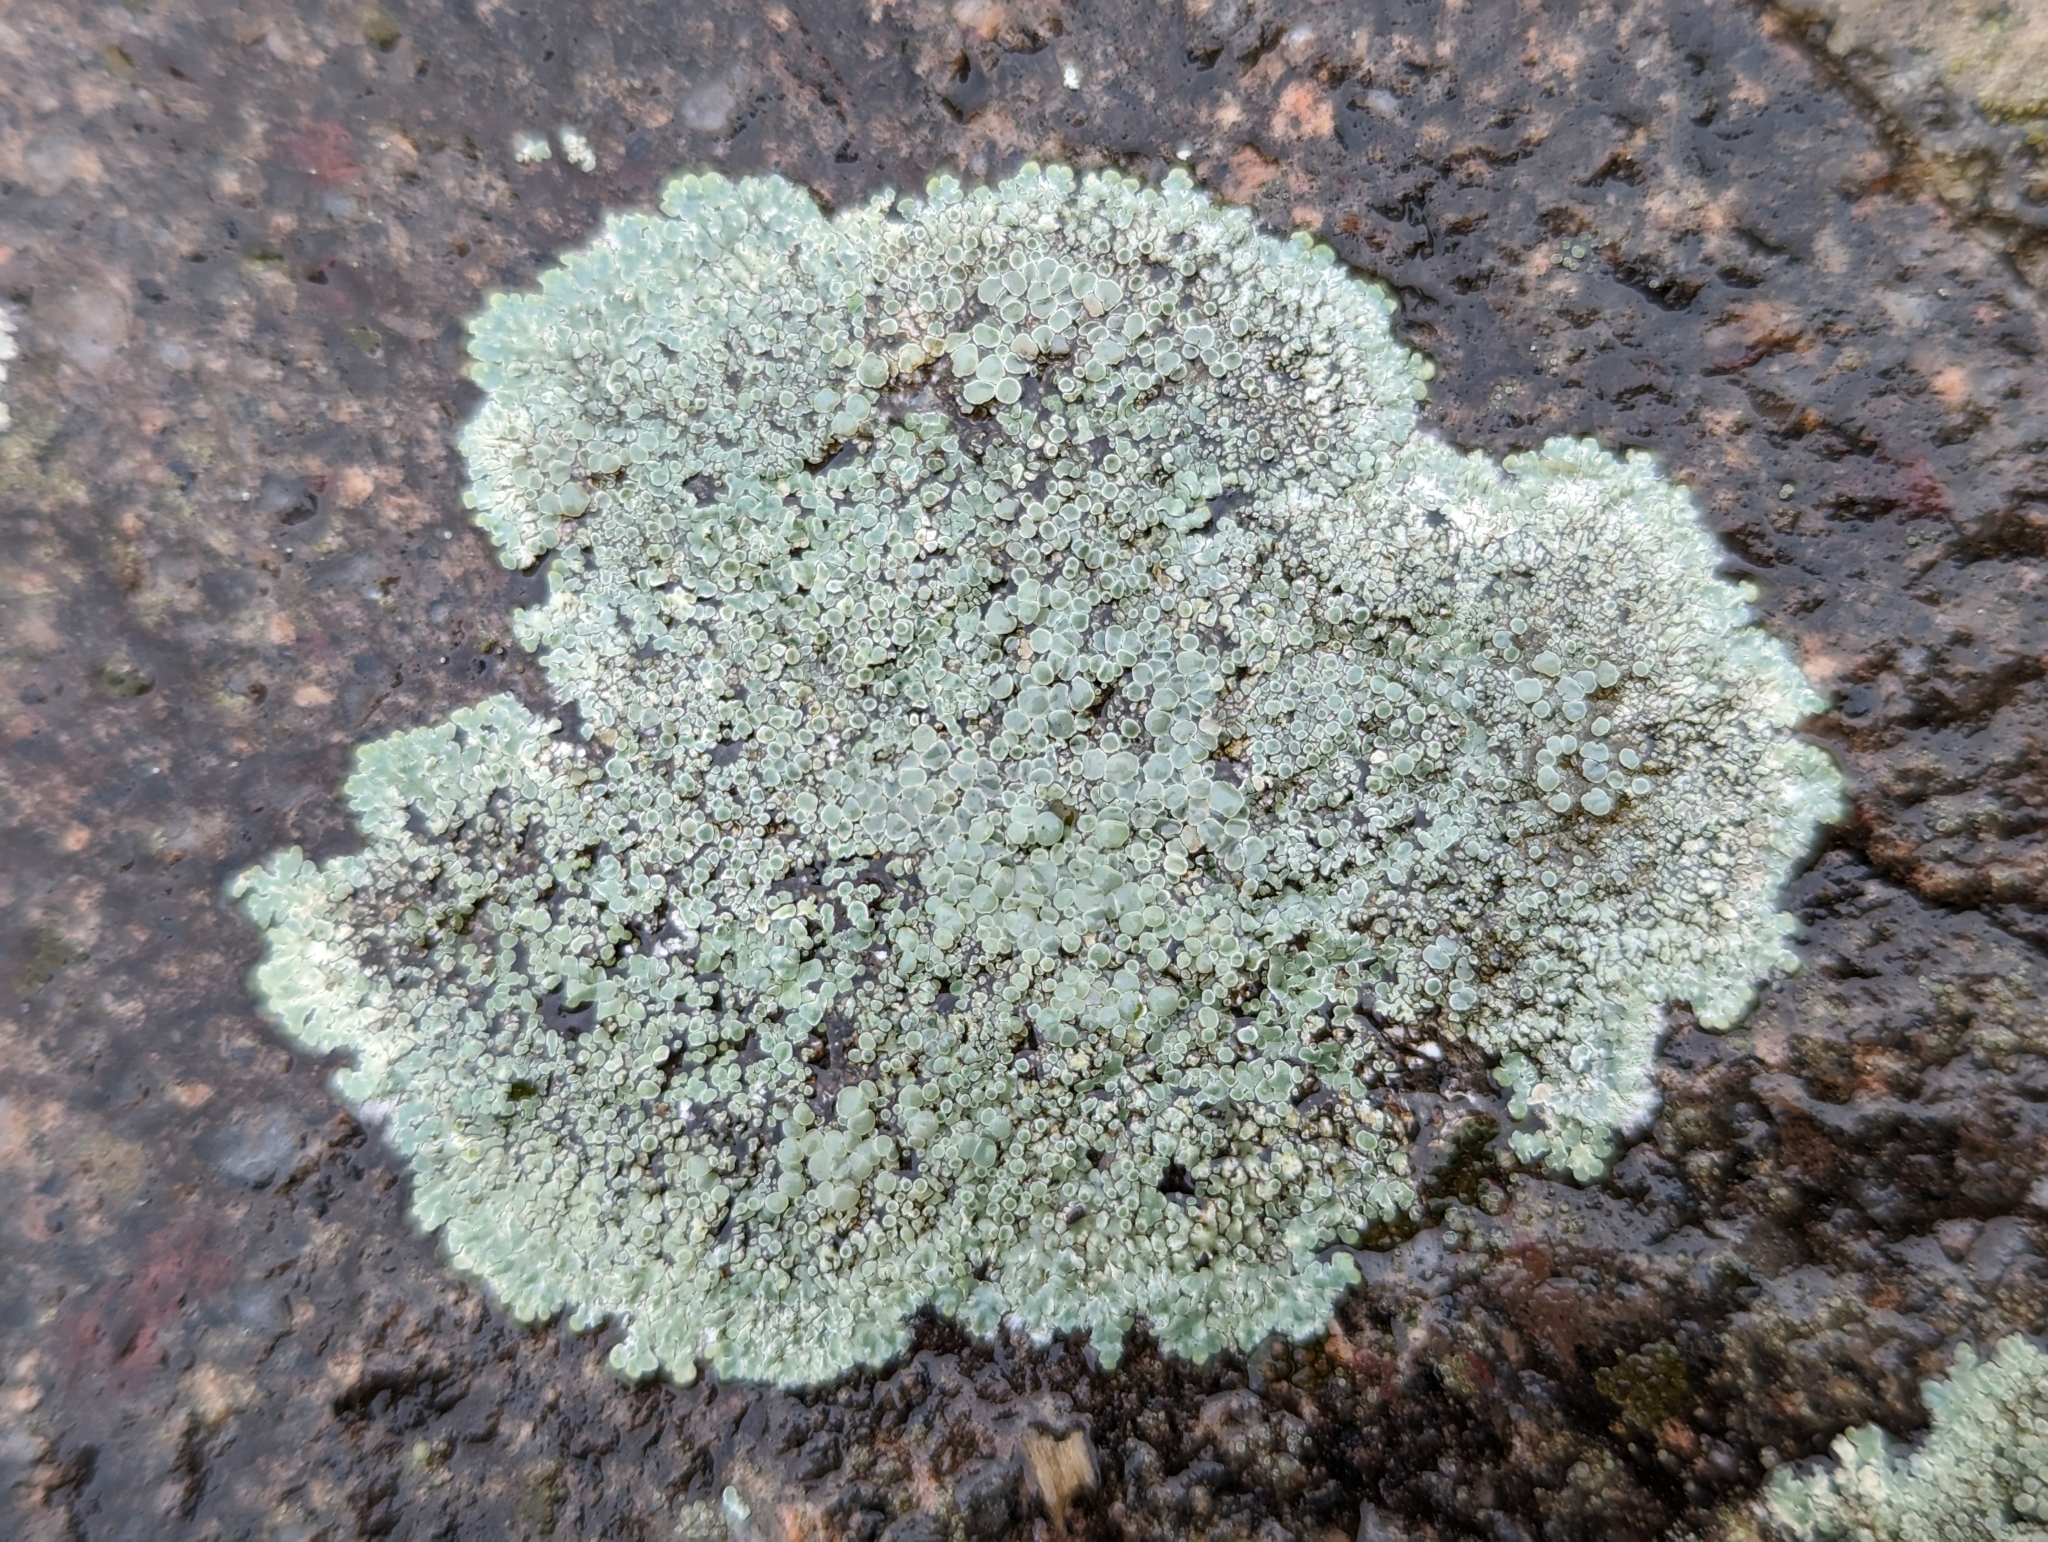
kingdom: Fungi
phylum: Ascomycota
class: Lecanoromycetes
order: Lecanorales
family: Lecanoraceae
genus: Protoparmeliopsis
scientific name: Protoparmeliopsis muralis
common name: Stonewall rim lichen
